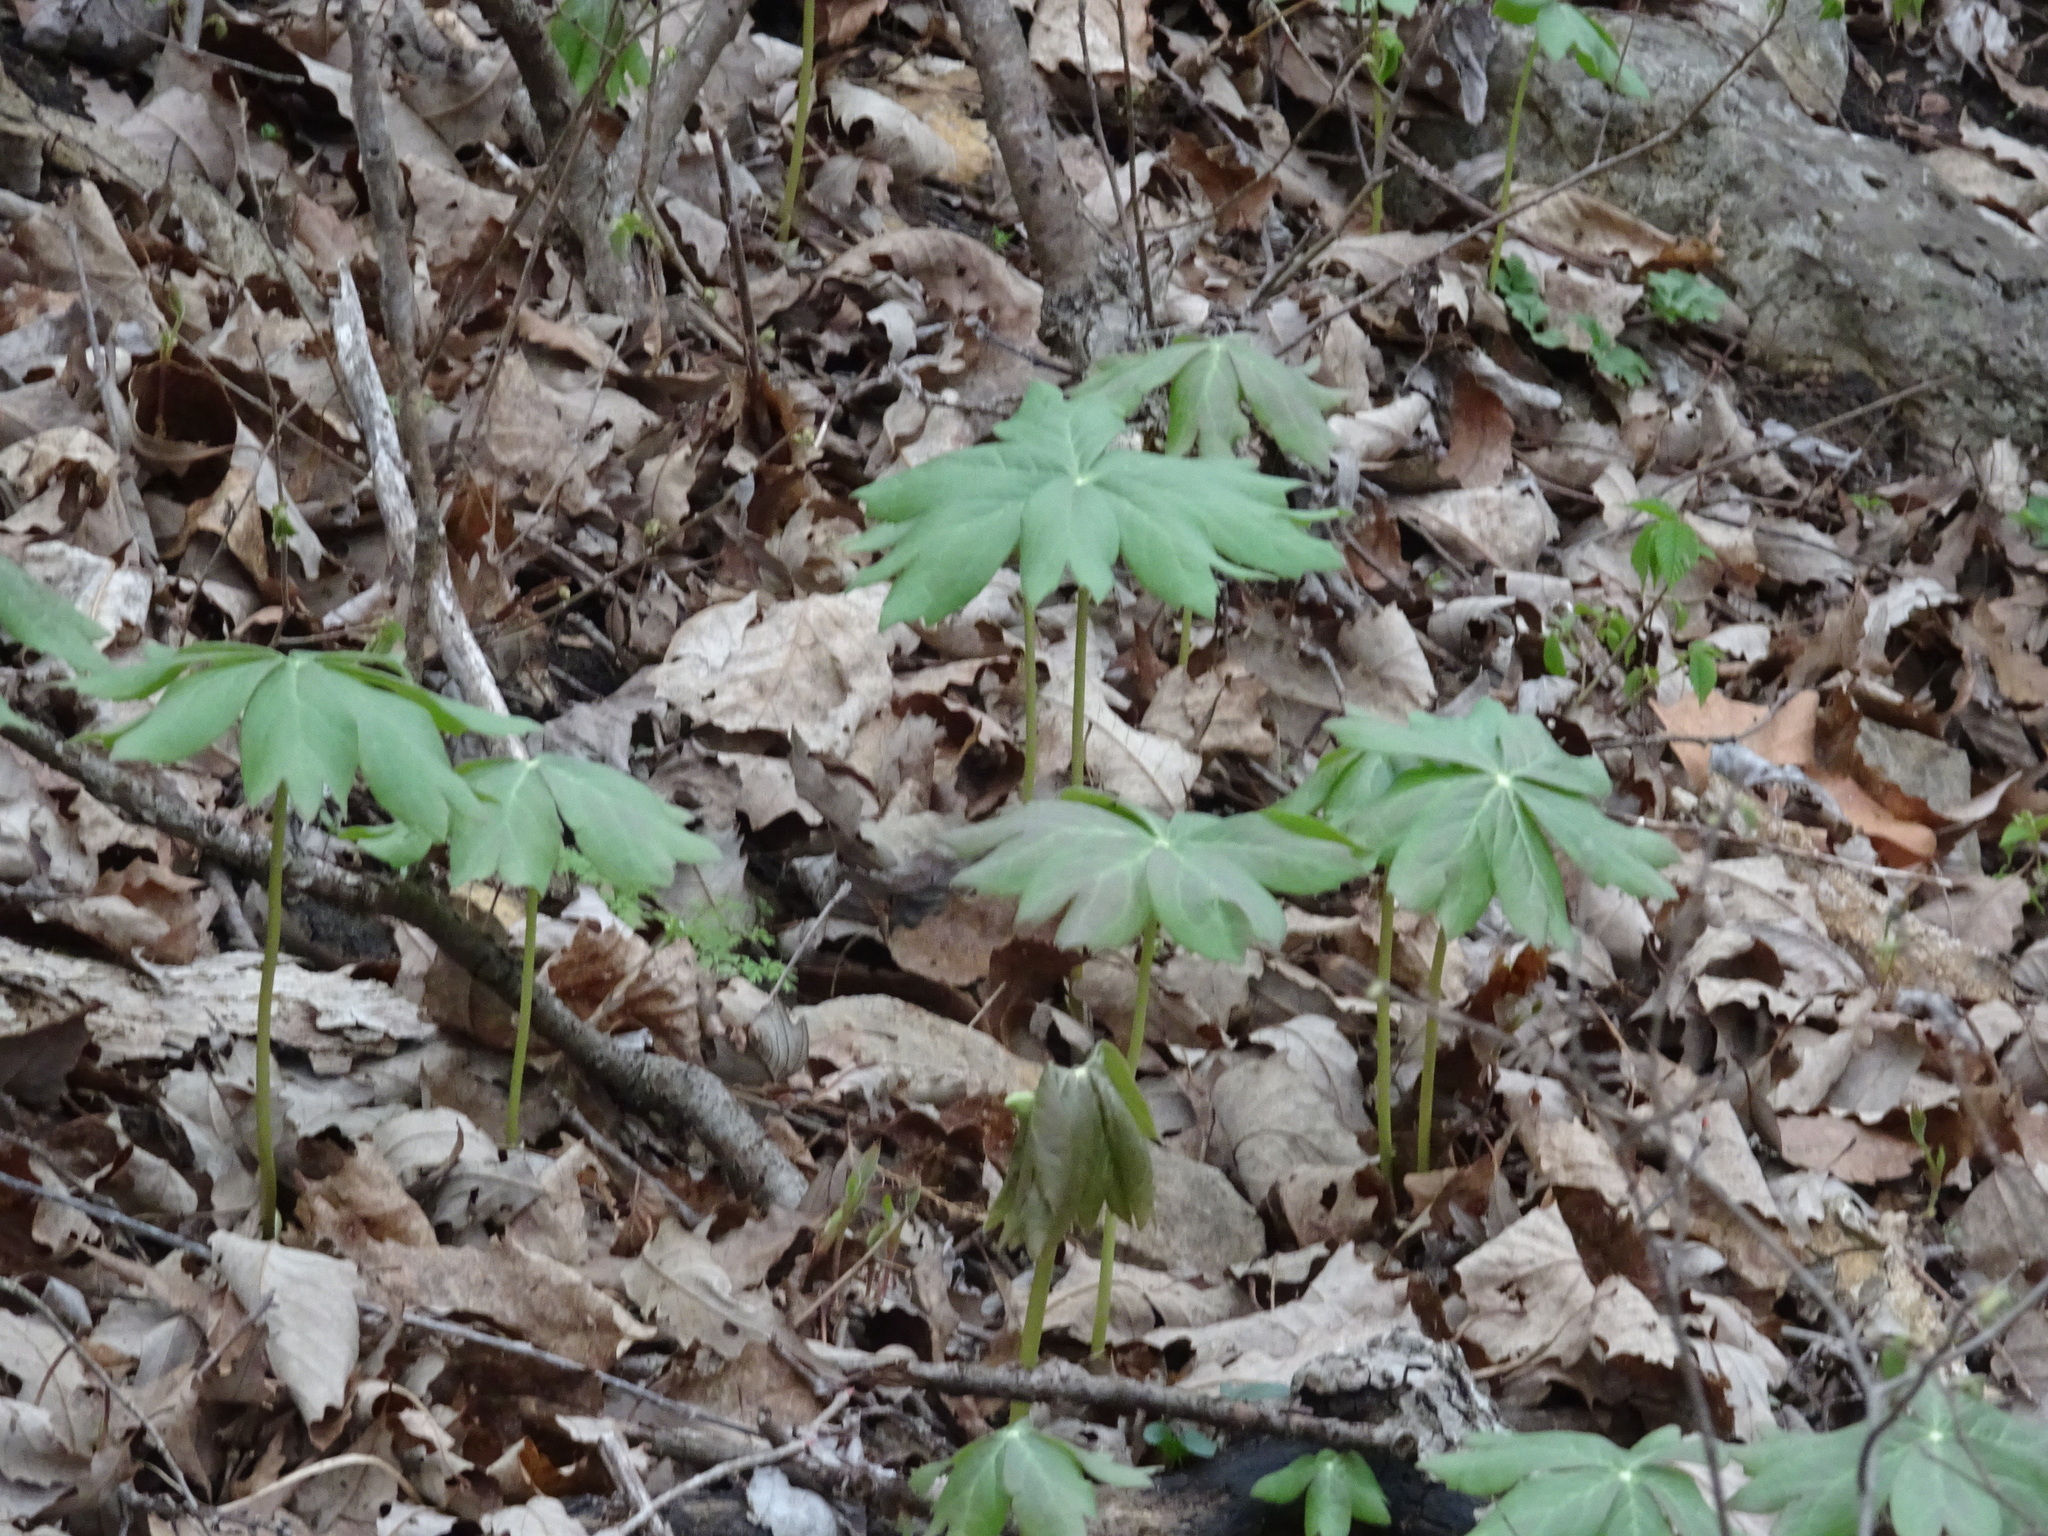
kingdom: Plantae
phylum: Tracheophyta
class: Magnoliopsida
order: Ranunculales
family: Berberidaceae
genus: Podophyllum
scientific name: Podophyllum peltatum
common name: Wild mandrake
